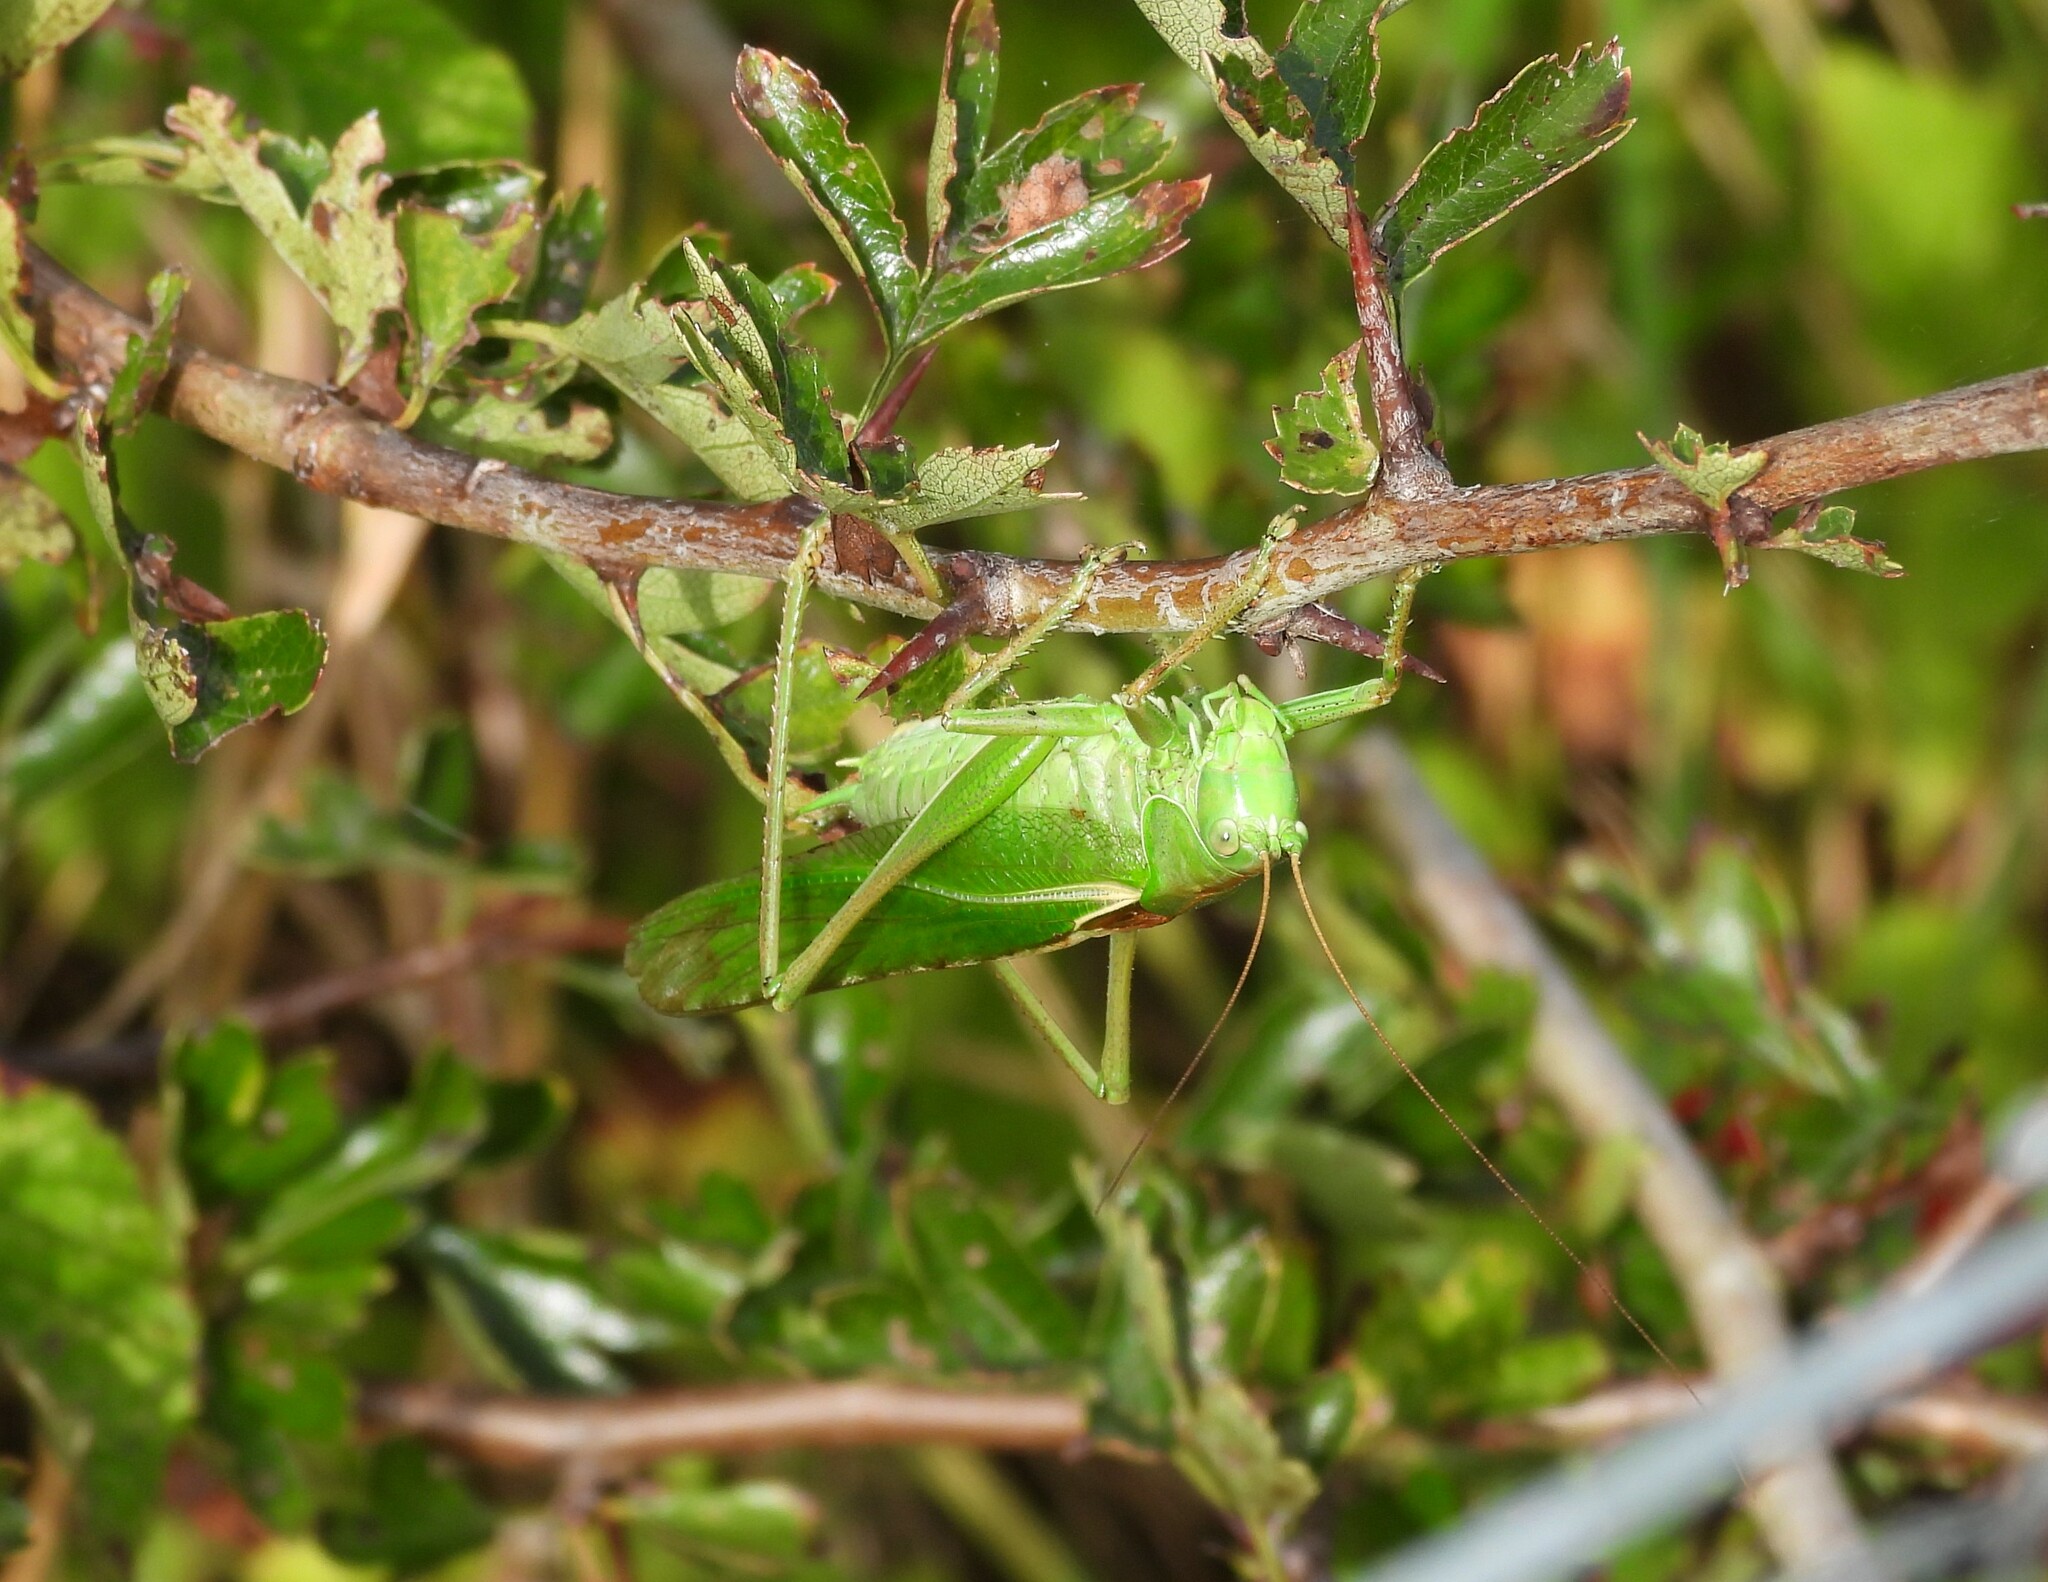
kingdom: Animalia
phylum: Arthropoda
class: Insecta
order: Orthoptera
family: Tettigoniidae
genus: Tettigonia
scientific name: Tettigonia viridissima
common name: Great green bush-cricket
